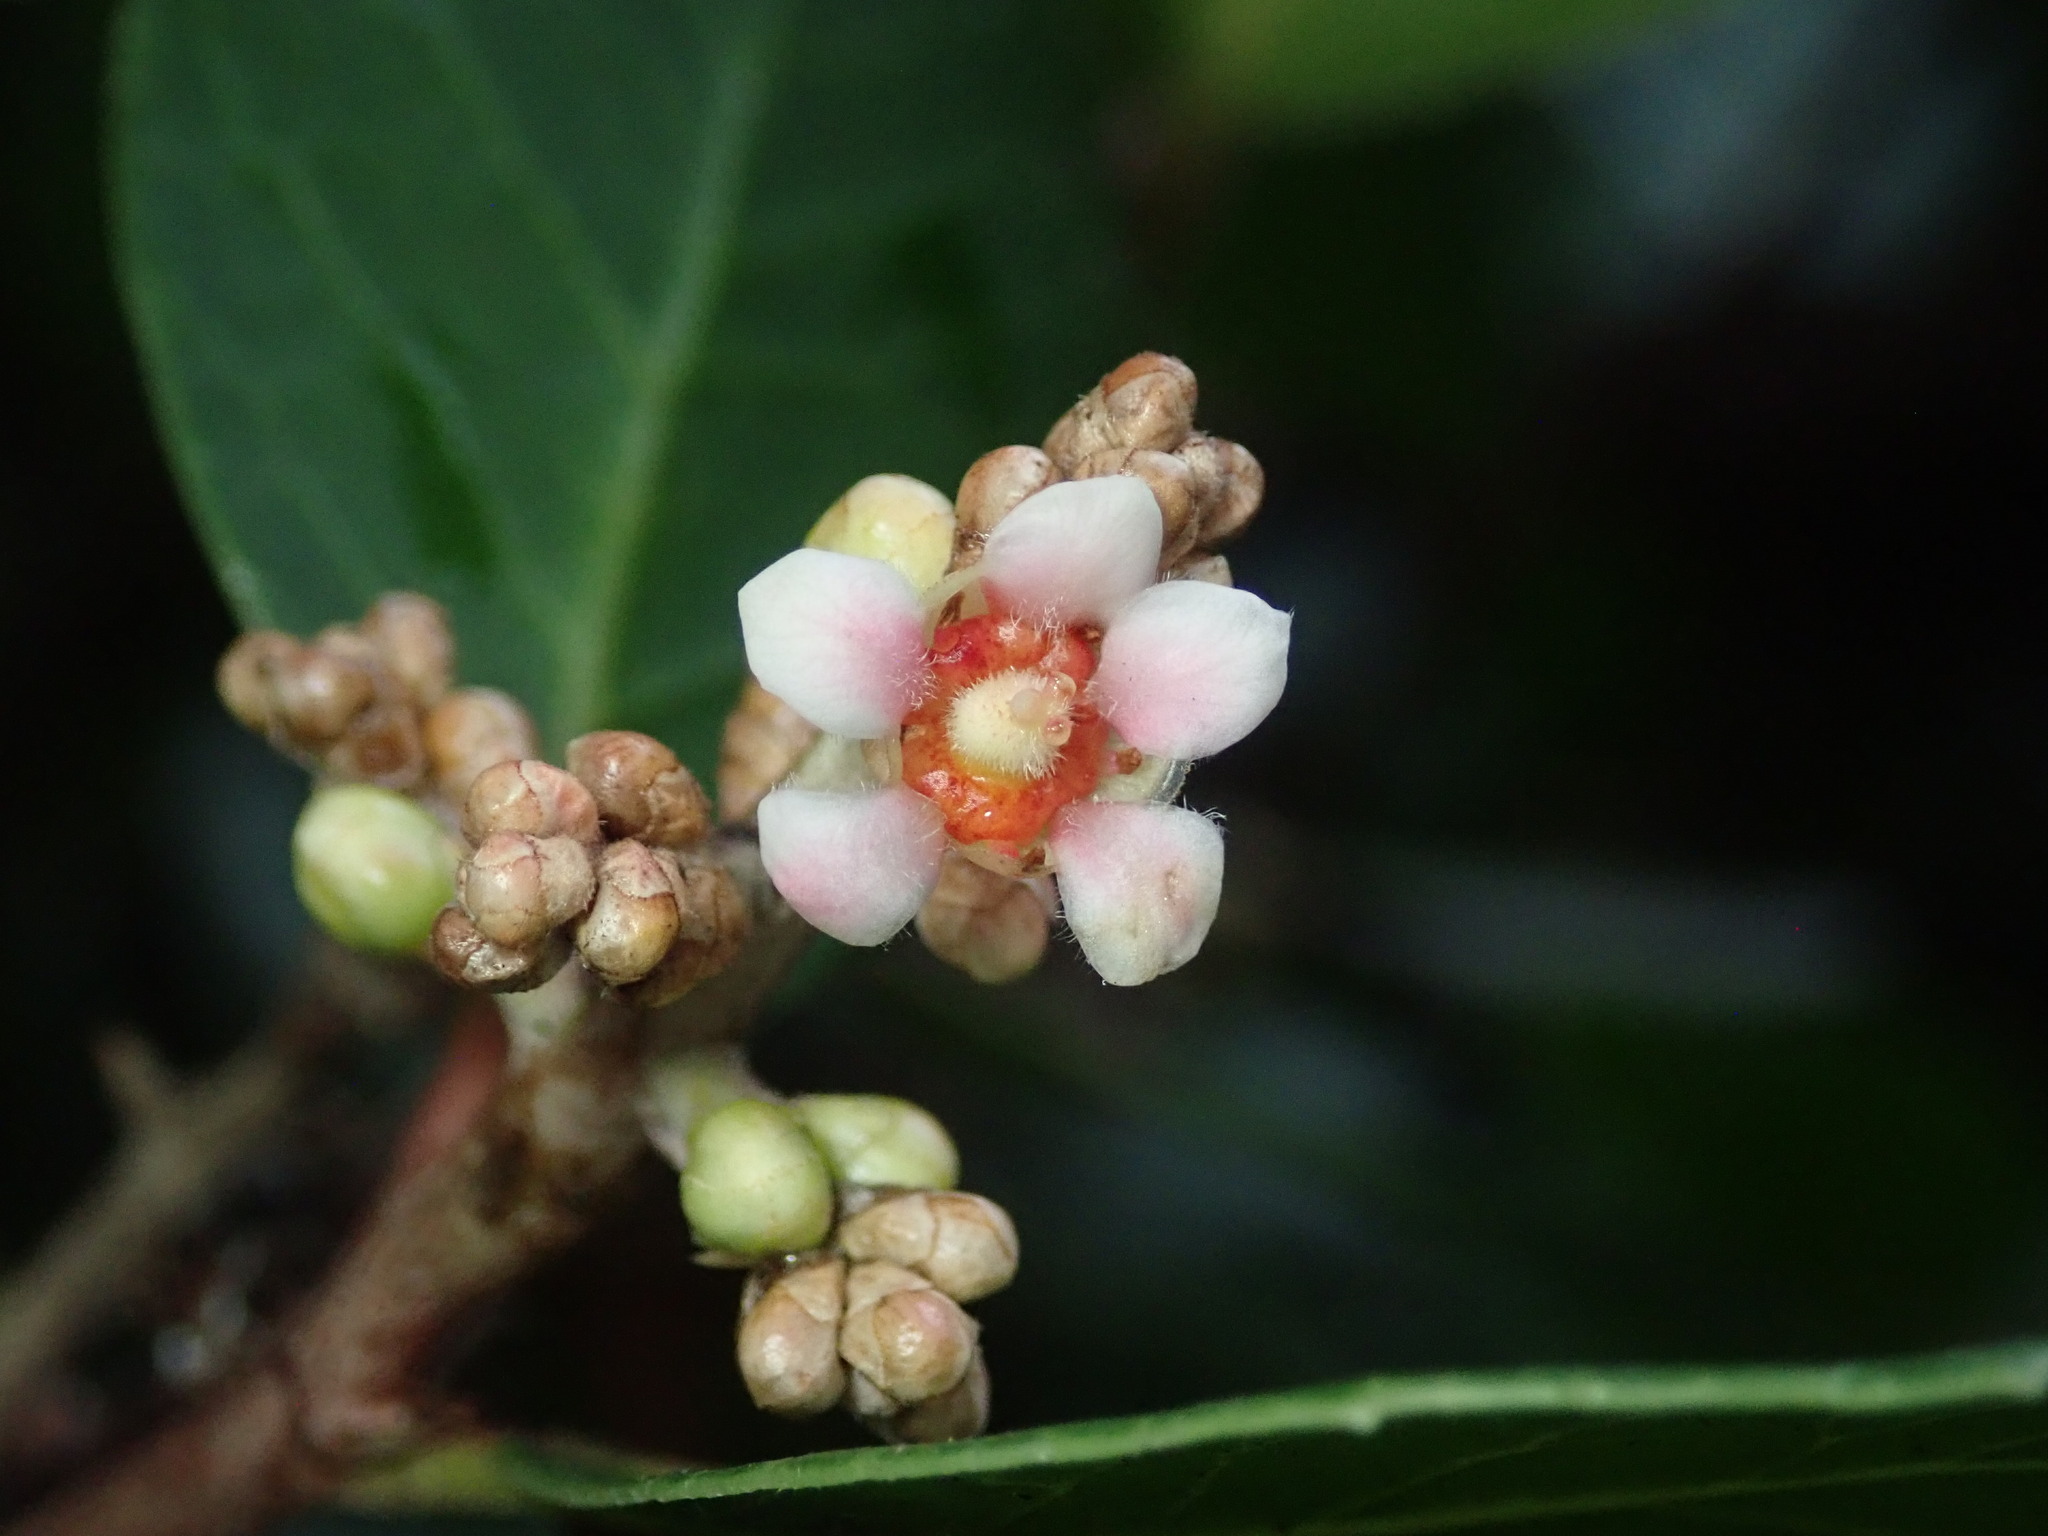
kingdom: Plantae
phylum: Tracheophyta
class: Magnoliopsida
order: Sapindales
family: Anacardiaceae
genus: Rhus
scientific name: Rhus integrifolia
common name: Lemonade sumac
